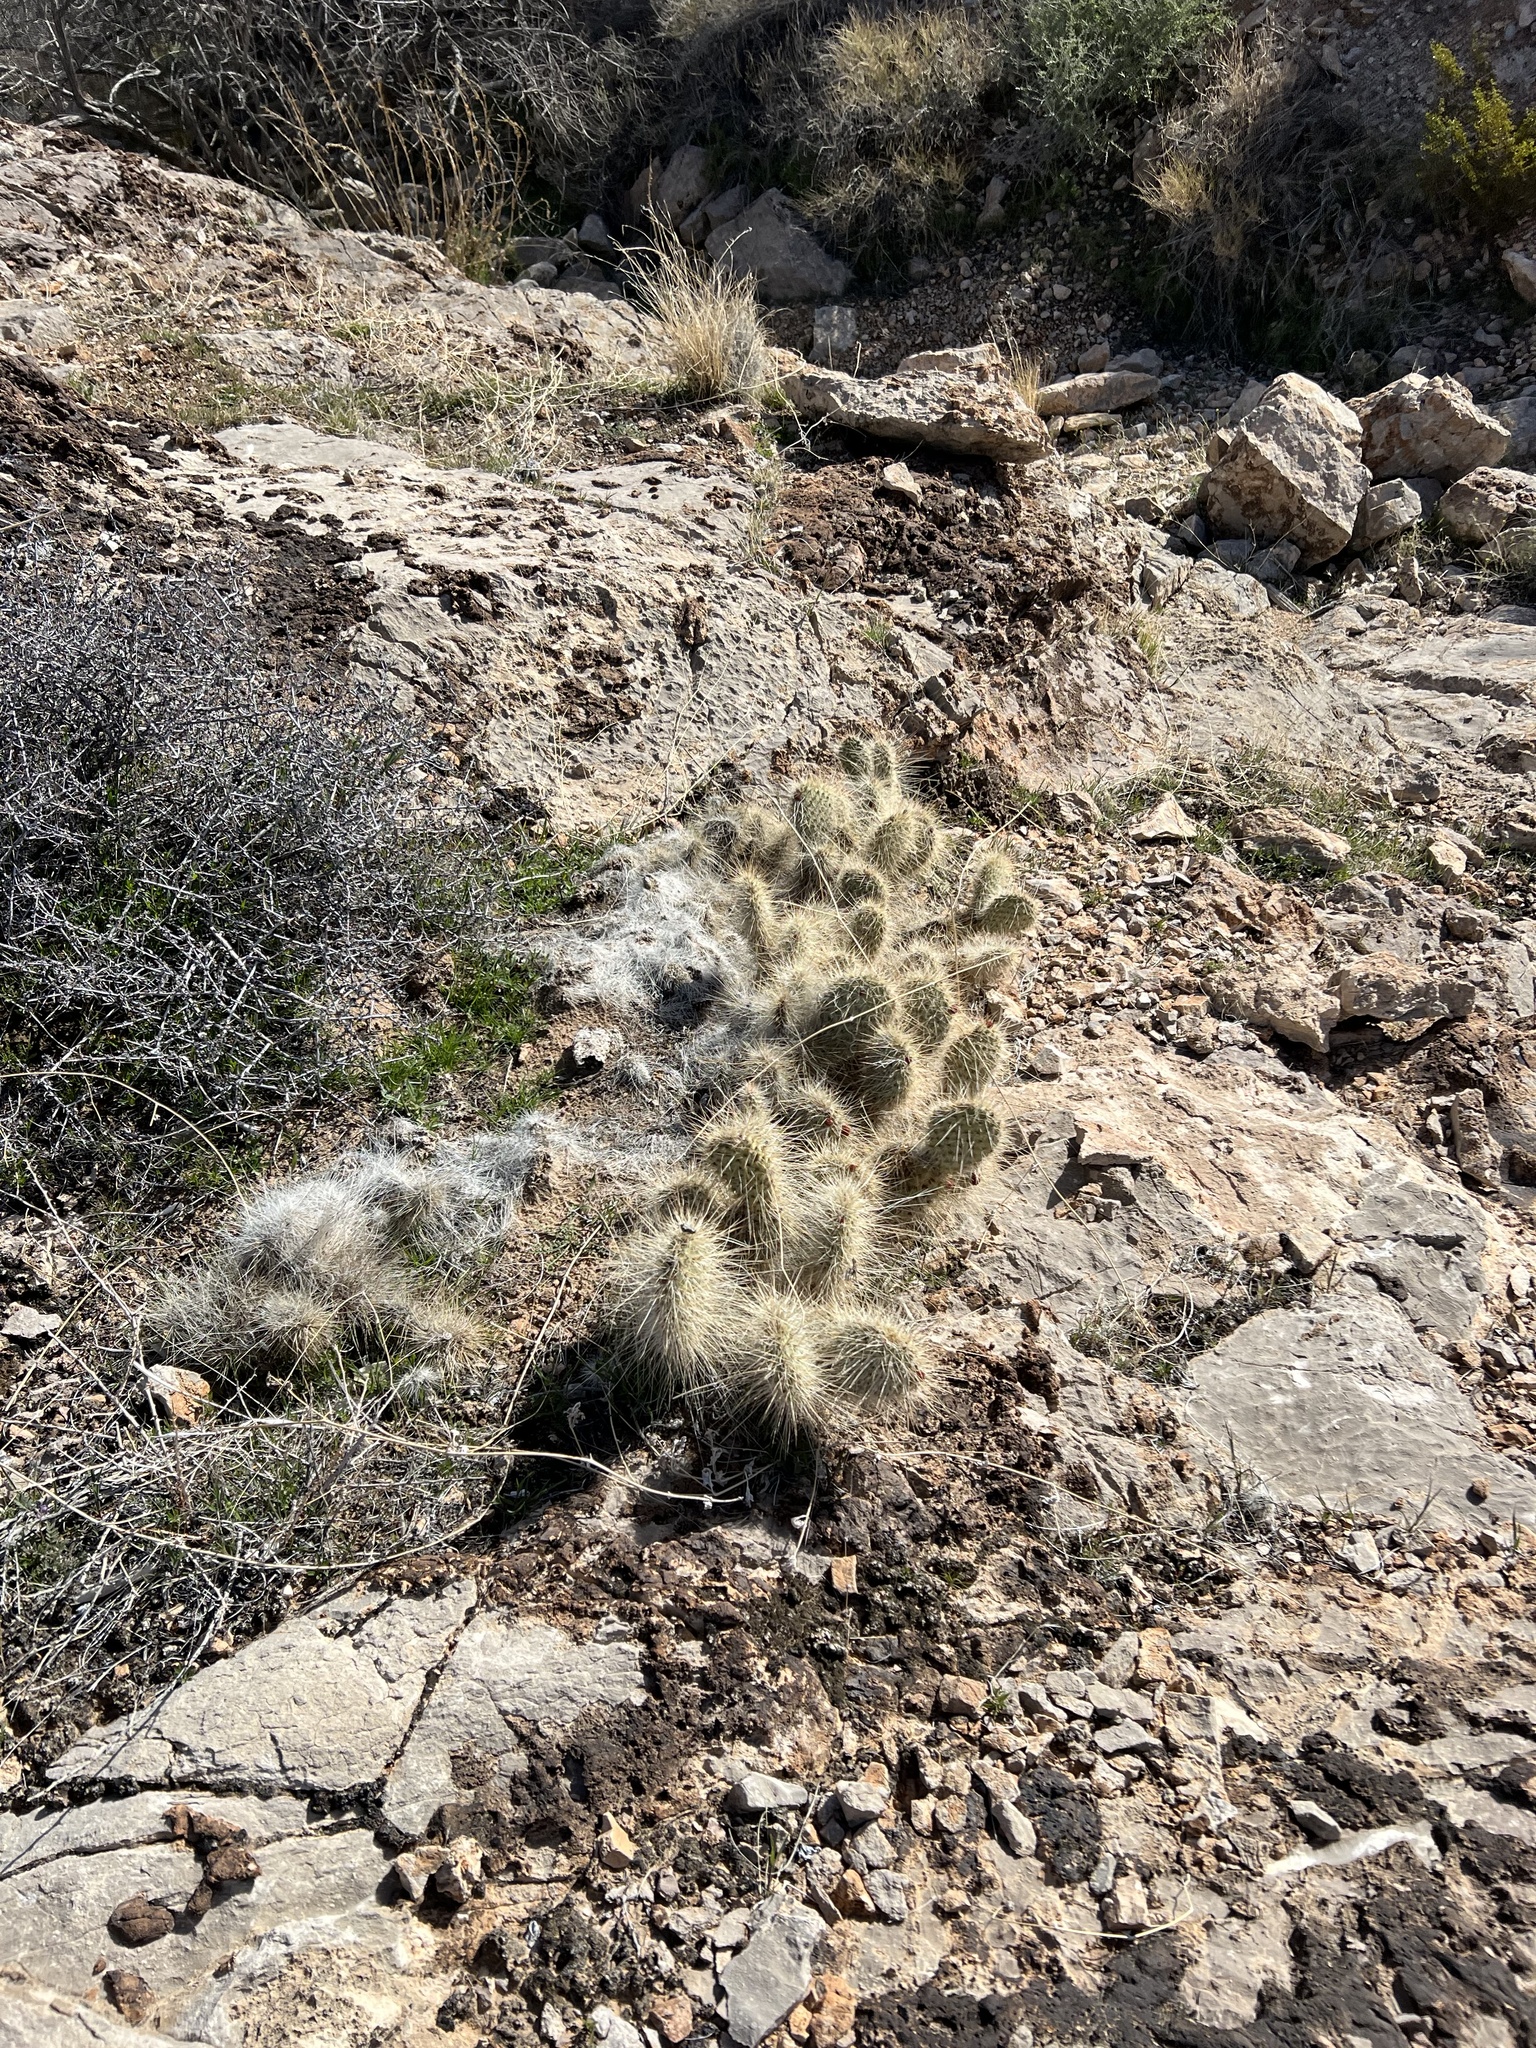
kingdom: Plantae
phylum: Tracheophyta
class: Magnoliopsida
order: Caryophyllales
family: Cactaceae
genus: Opuntia
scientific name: Opuntia polyacantha
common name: Plains prickly-pear
